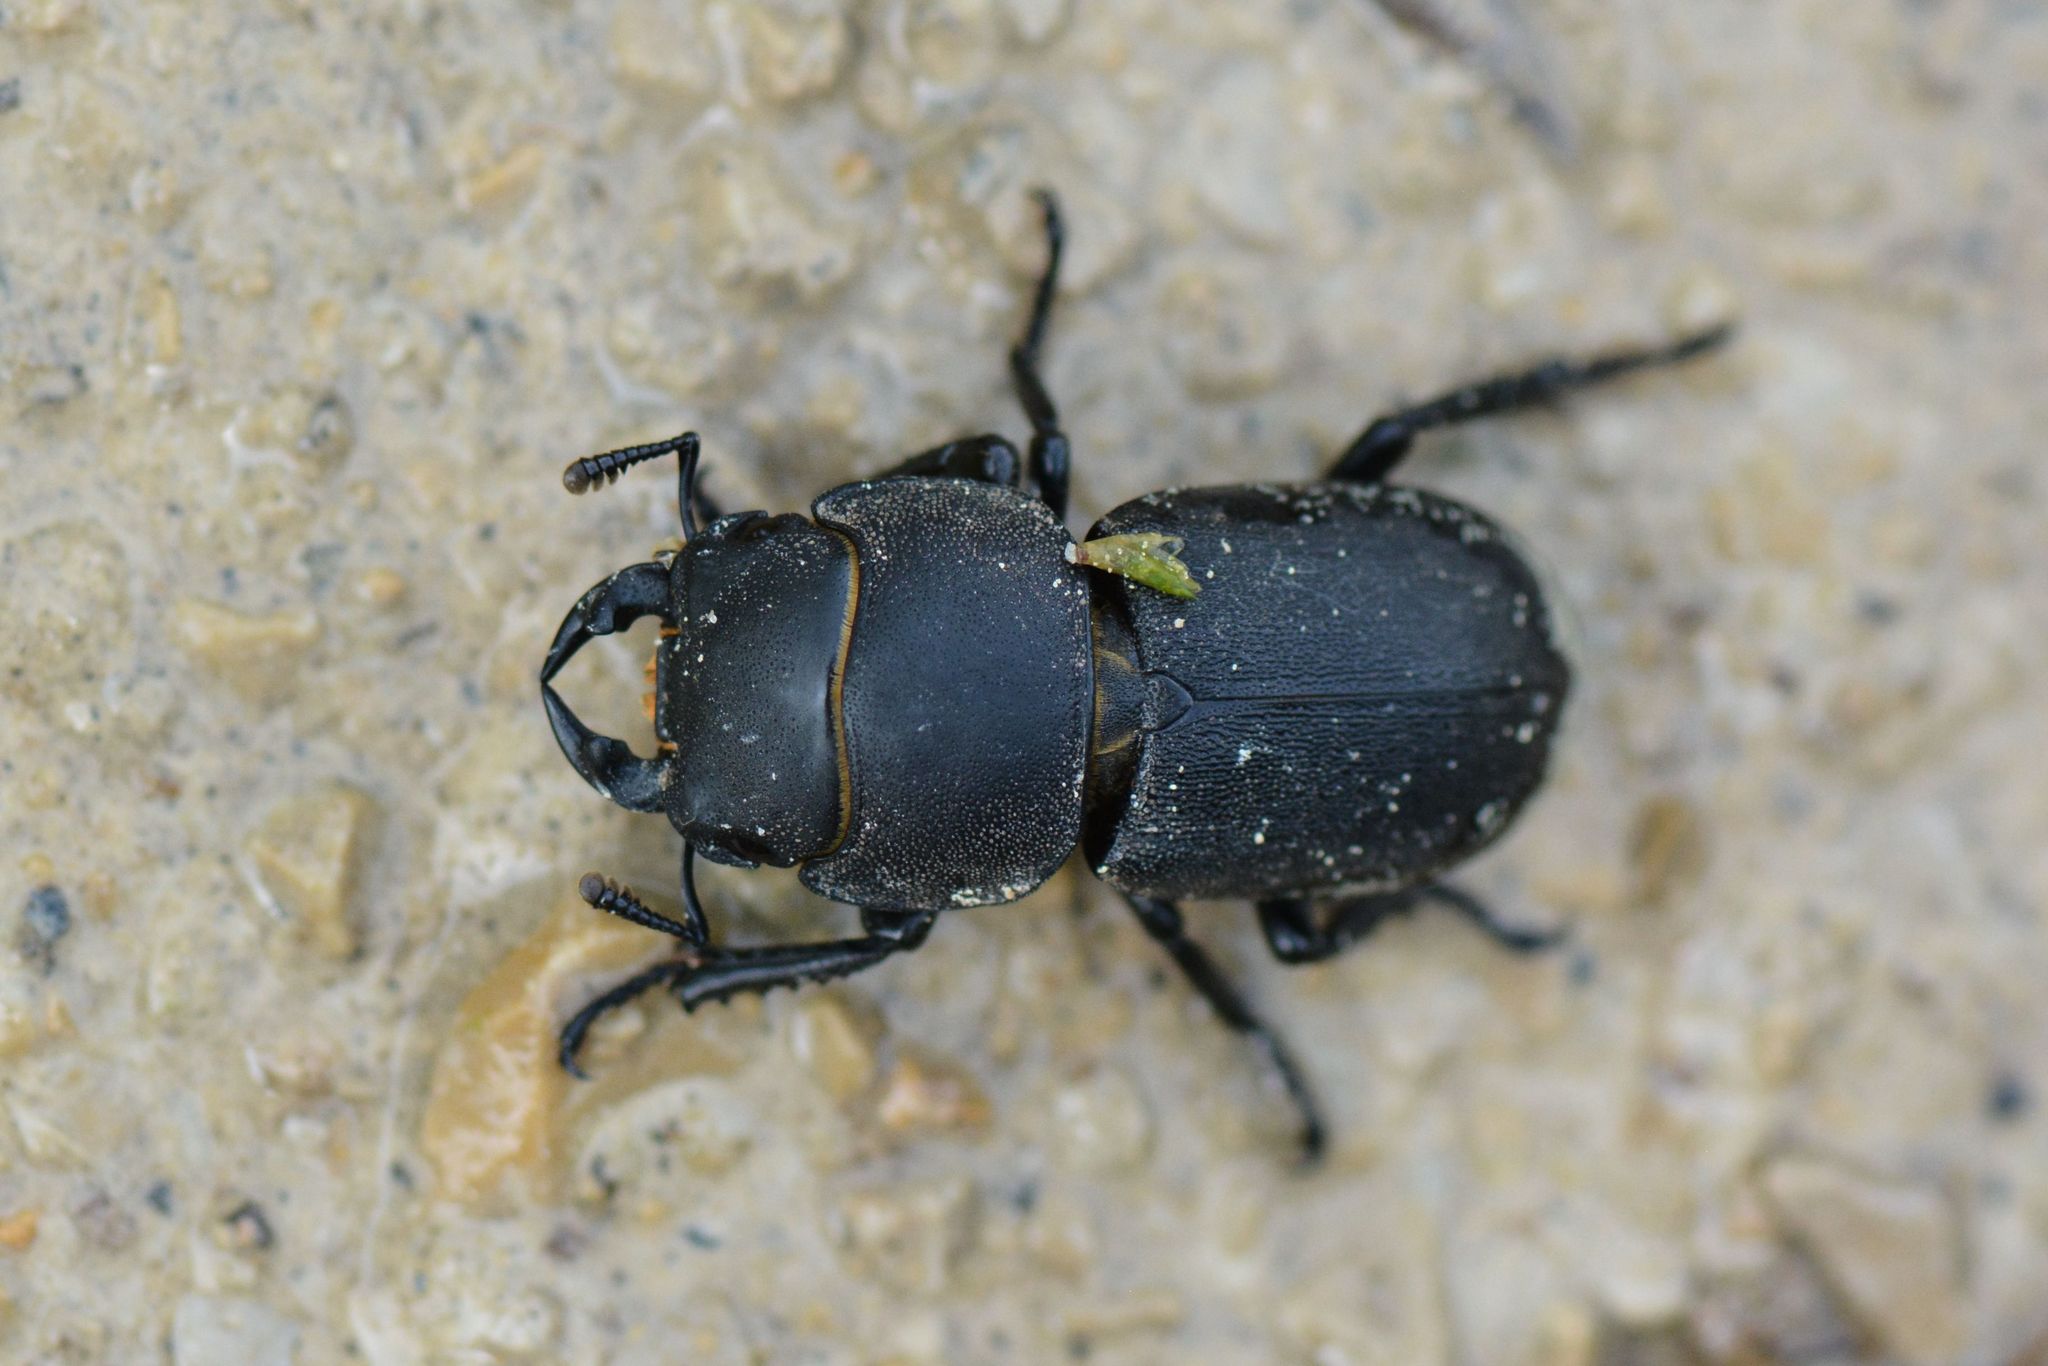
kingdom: Animalia
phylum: Arthropoda
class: Insecta
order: Coleoptera
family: Lucanidae
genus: Dorcus
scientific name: Dorcus parallelipipedus
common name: Lesser stag beetle
